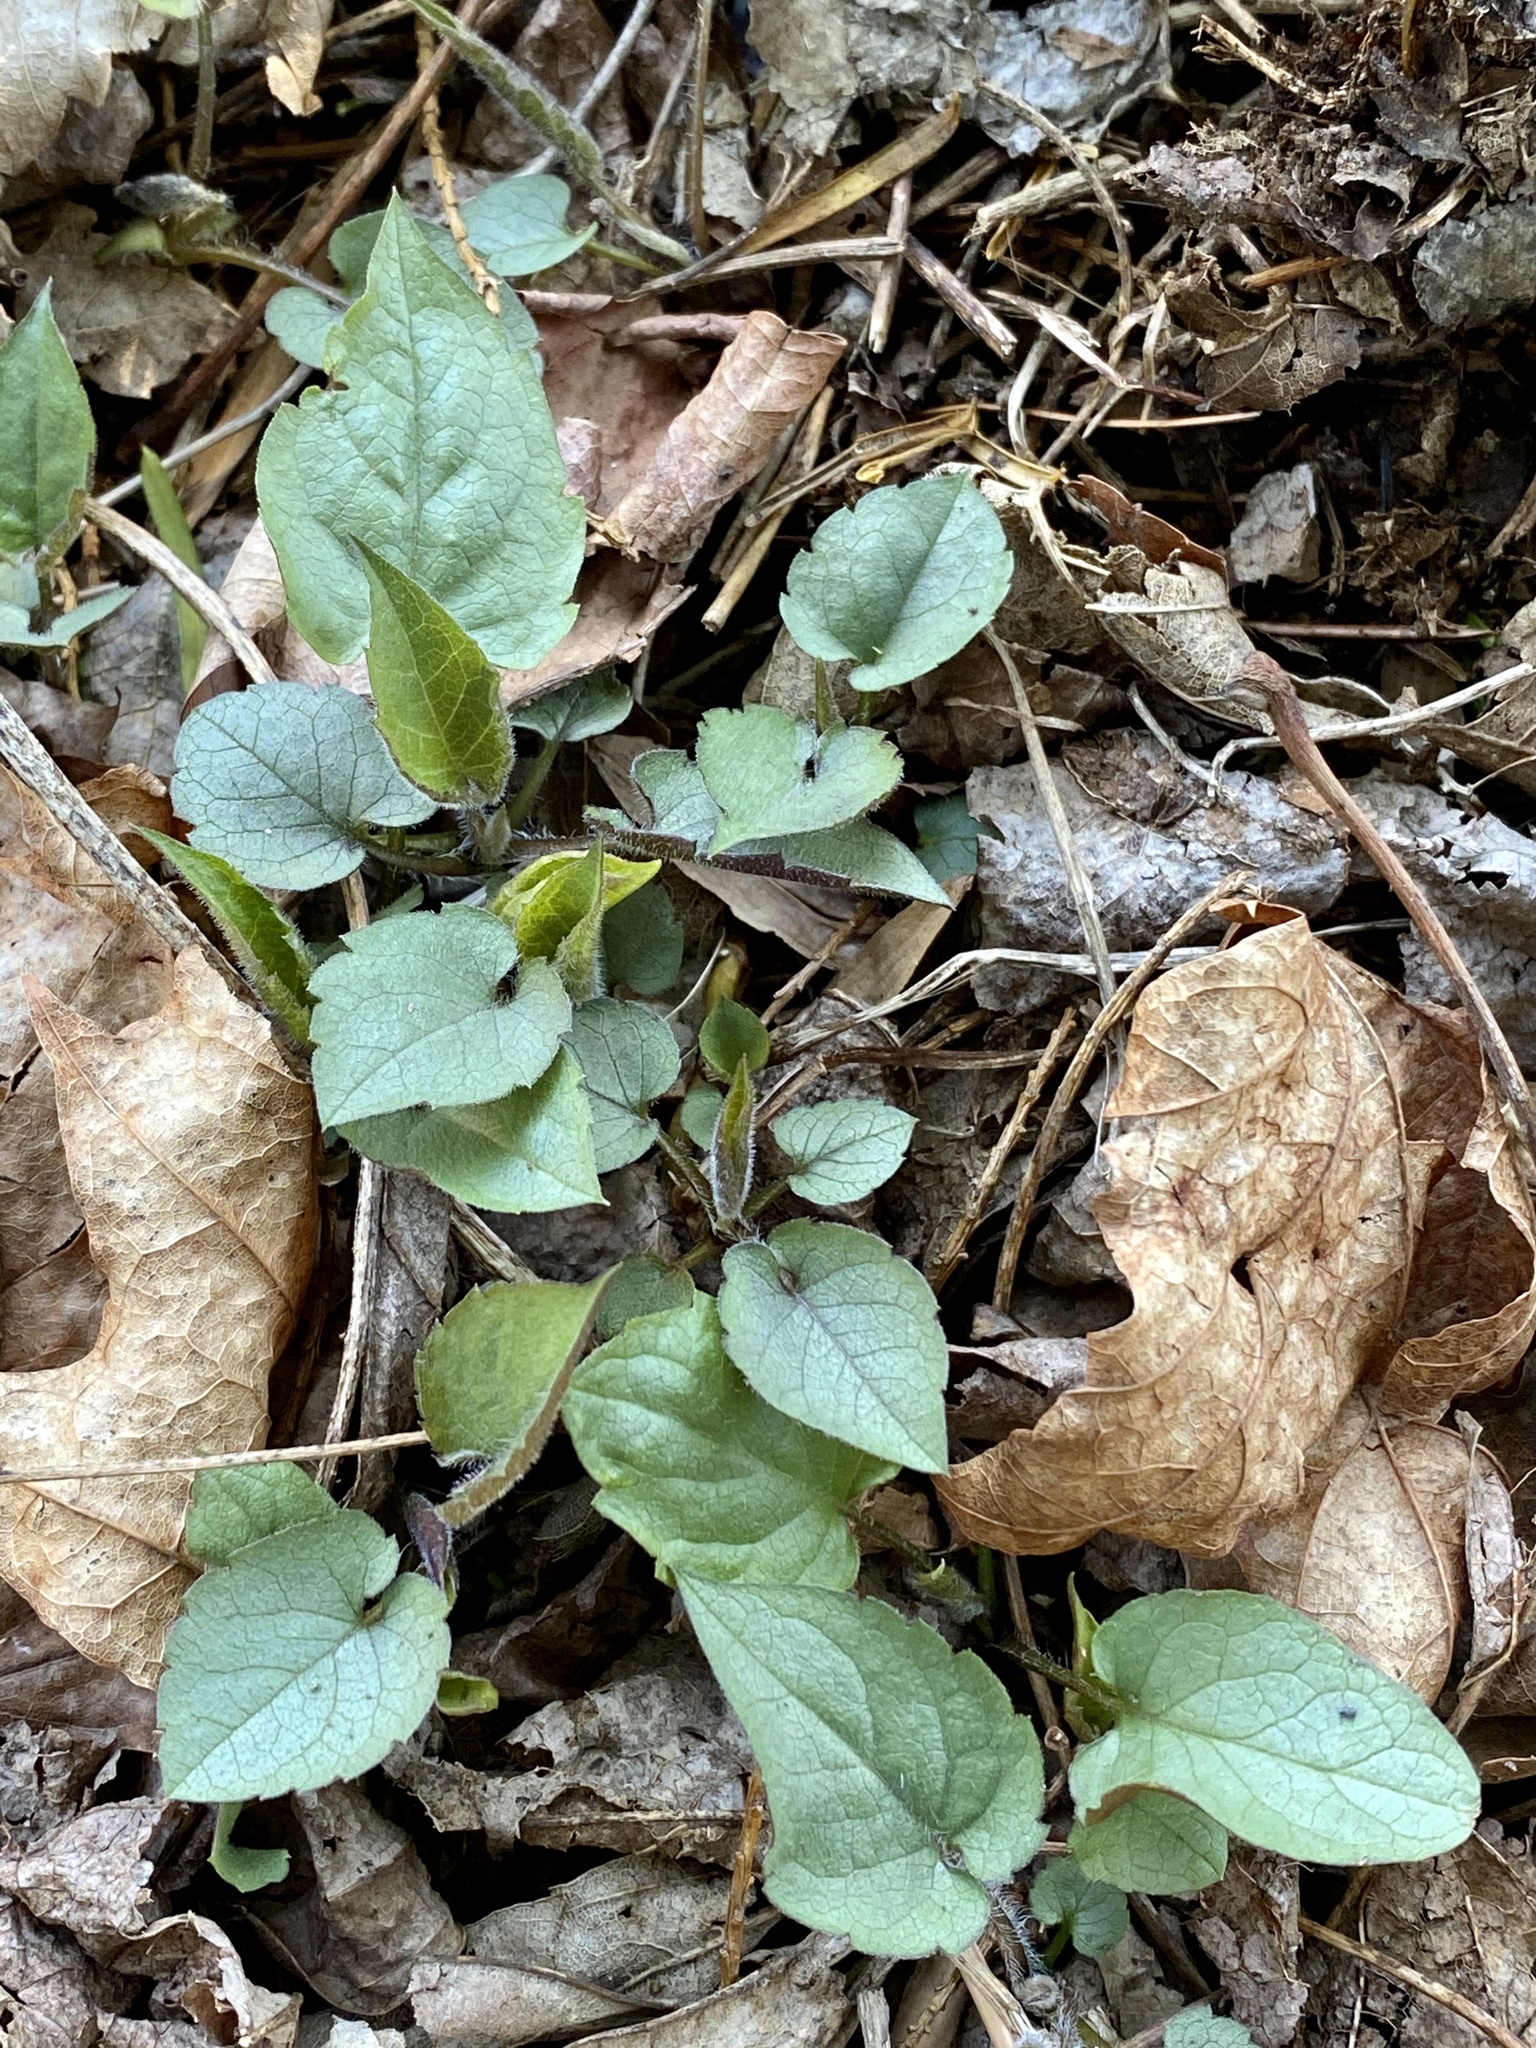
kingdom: Plantae
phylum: Tracheophyta
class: Magnoliopsida
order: Asterales
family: Asteraceae
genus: Eurybia
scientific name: Eurybia divaricata
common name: White wood aster
